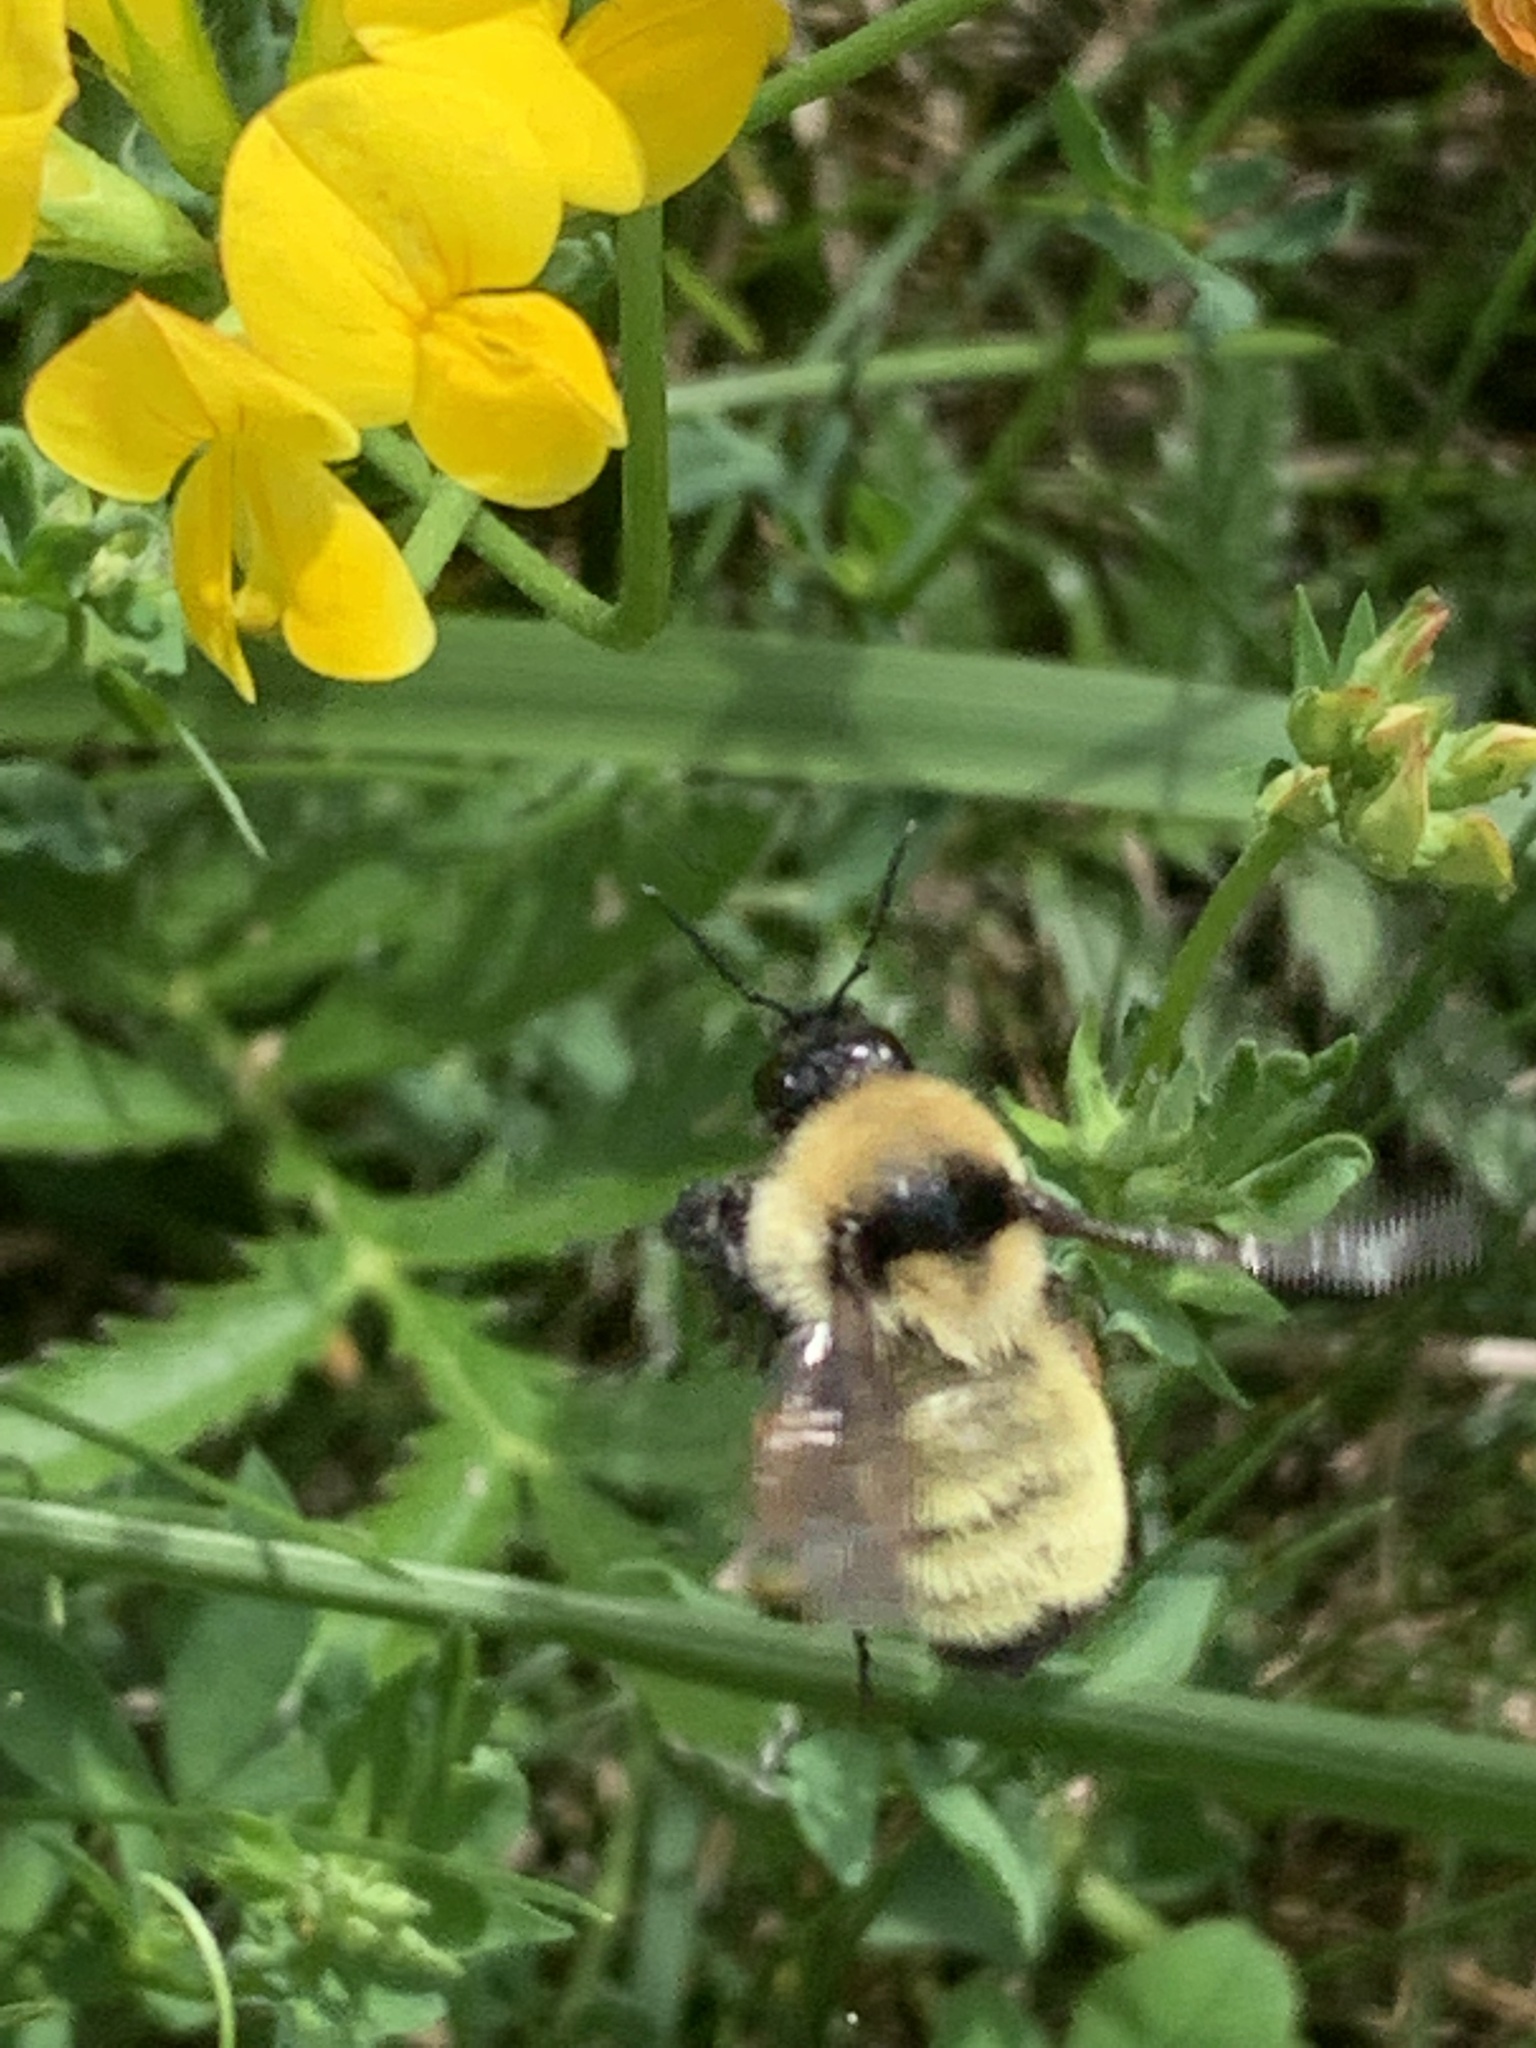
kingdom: Animalia
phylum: Arthropoda
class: Insecta
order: Hymenoptera
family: Apidae
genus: Bombus
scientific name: Bombus fervidus
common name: Yellow bumble bee
